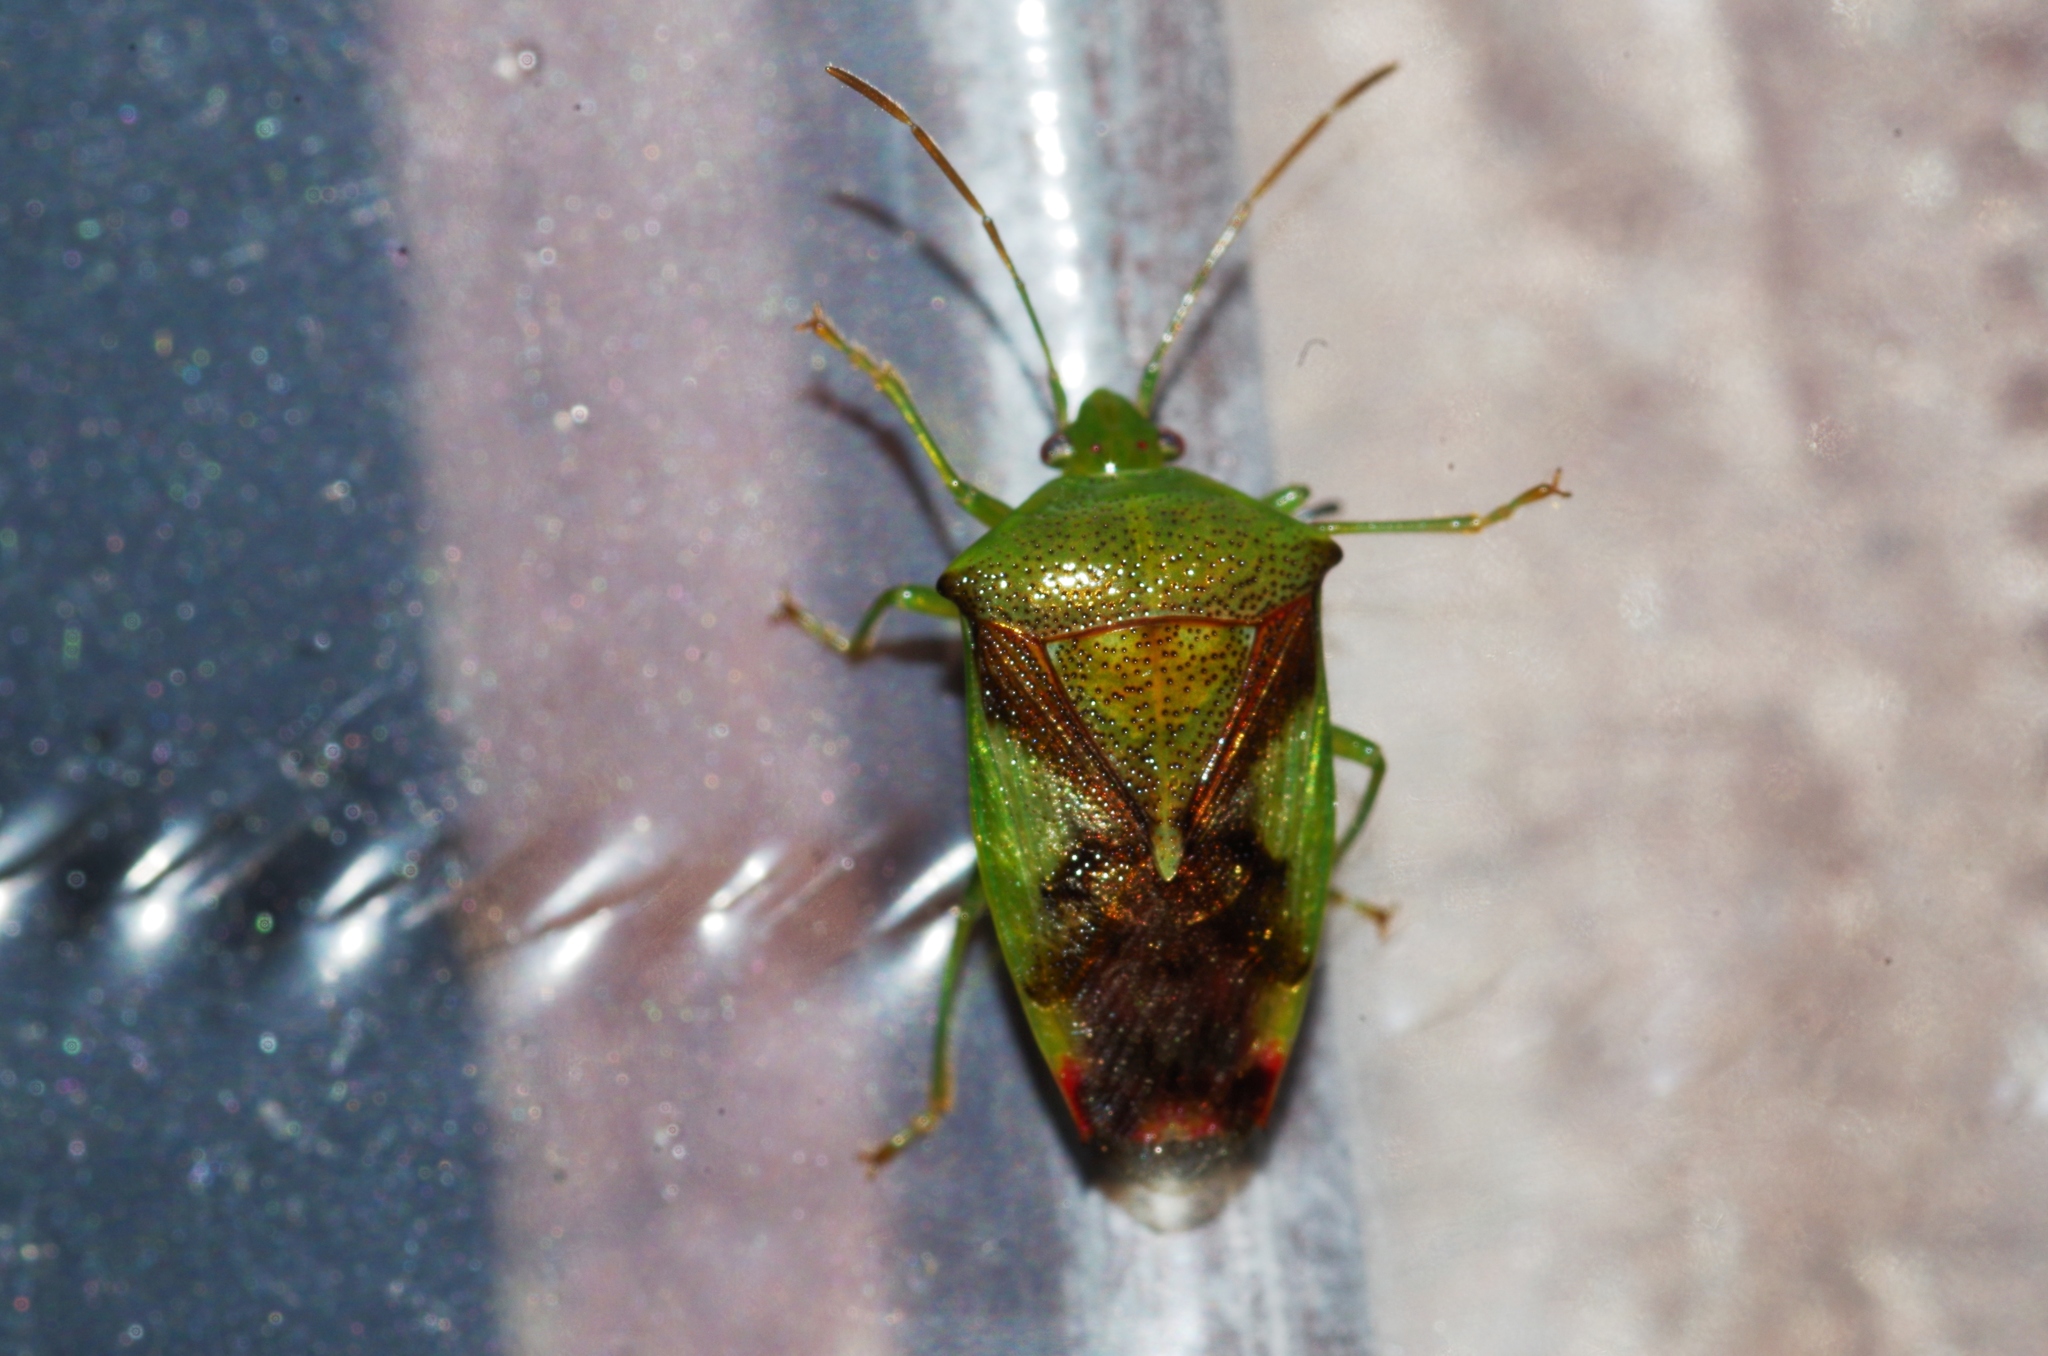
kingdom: Animalia
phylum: Arthropoda
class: Insecta
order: Hemiptera
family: Acanthosomatidae
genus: Elasmostethus
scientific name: Elasmostethus nubilus
